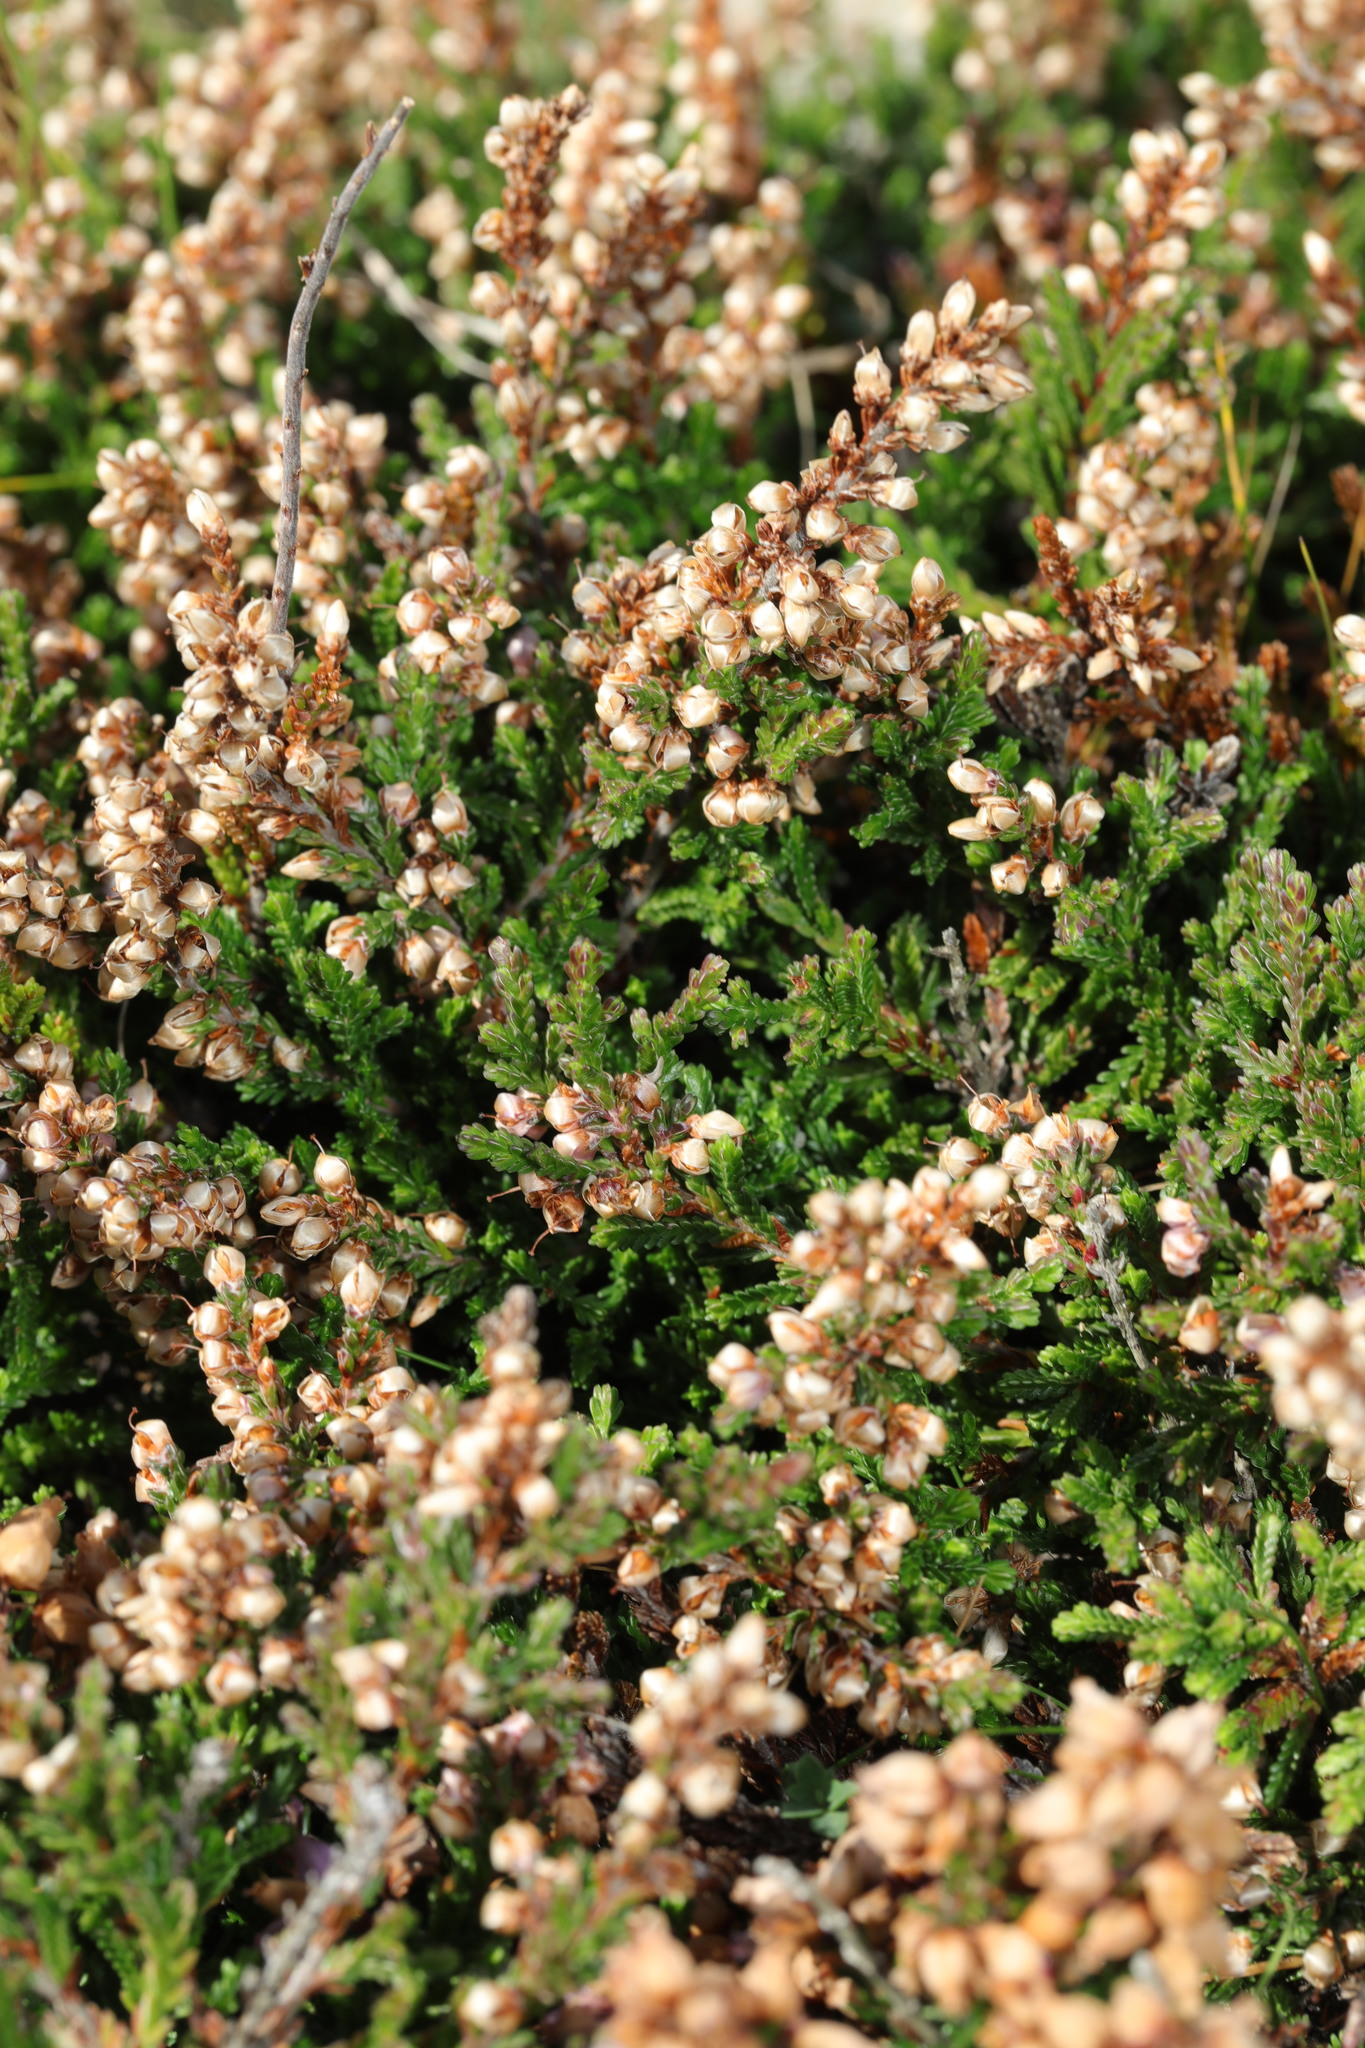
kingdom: Plantae
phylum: Tracheophyta
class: Magnoliopsida
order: Ericales
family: Ericaceae
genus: Calluna
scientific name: Calluna vulgaris
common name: Heather
